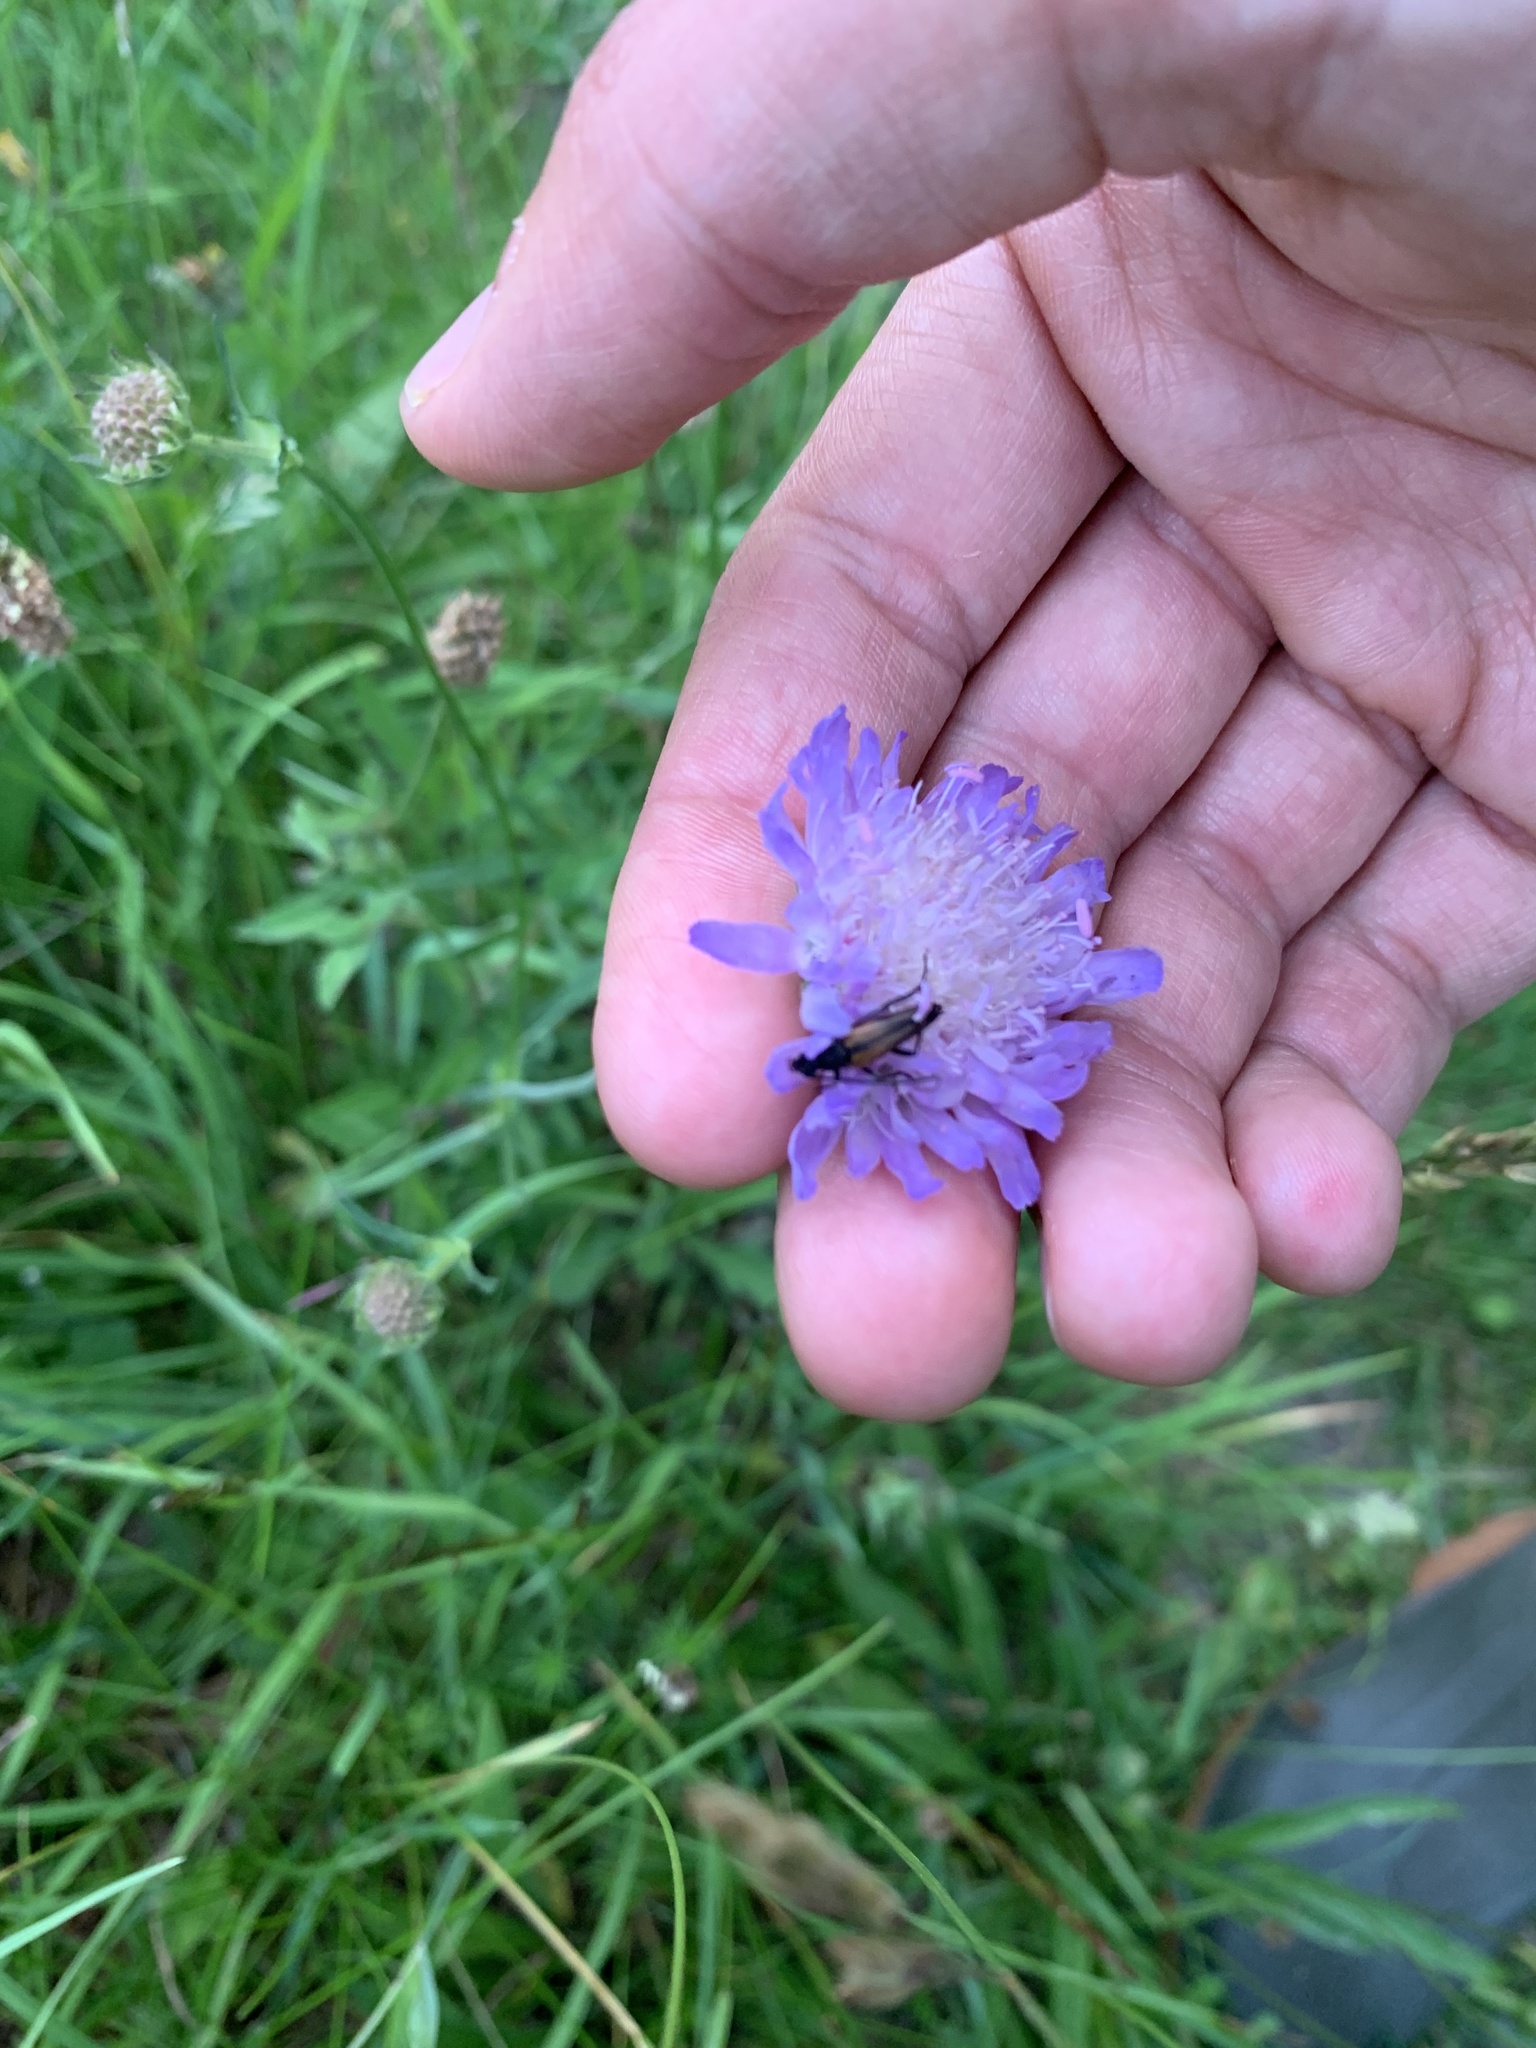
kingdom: Plantae
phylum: Tracheophyta
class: Magnoliopsida
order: Dipsacales
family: Caprifoliaceae
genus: Knautia
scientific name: Knautia arvensis
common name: Field scabiosa
